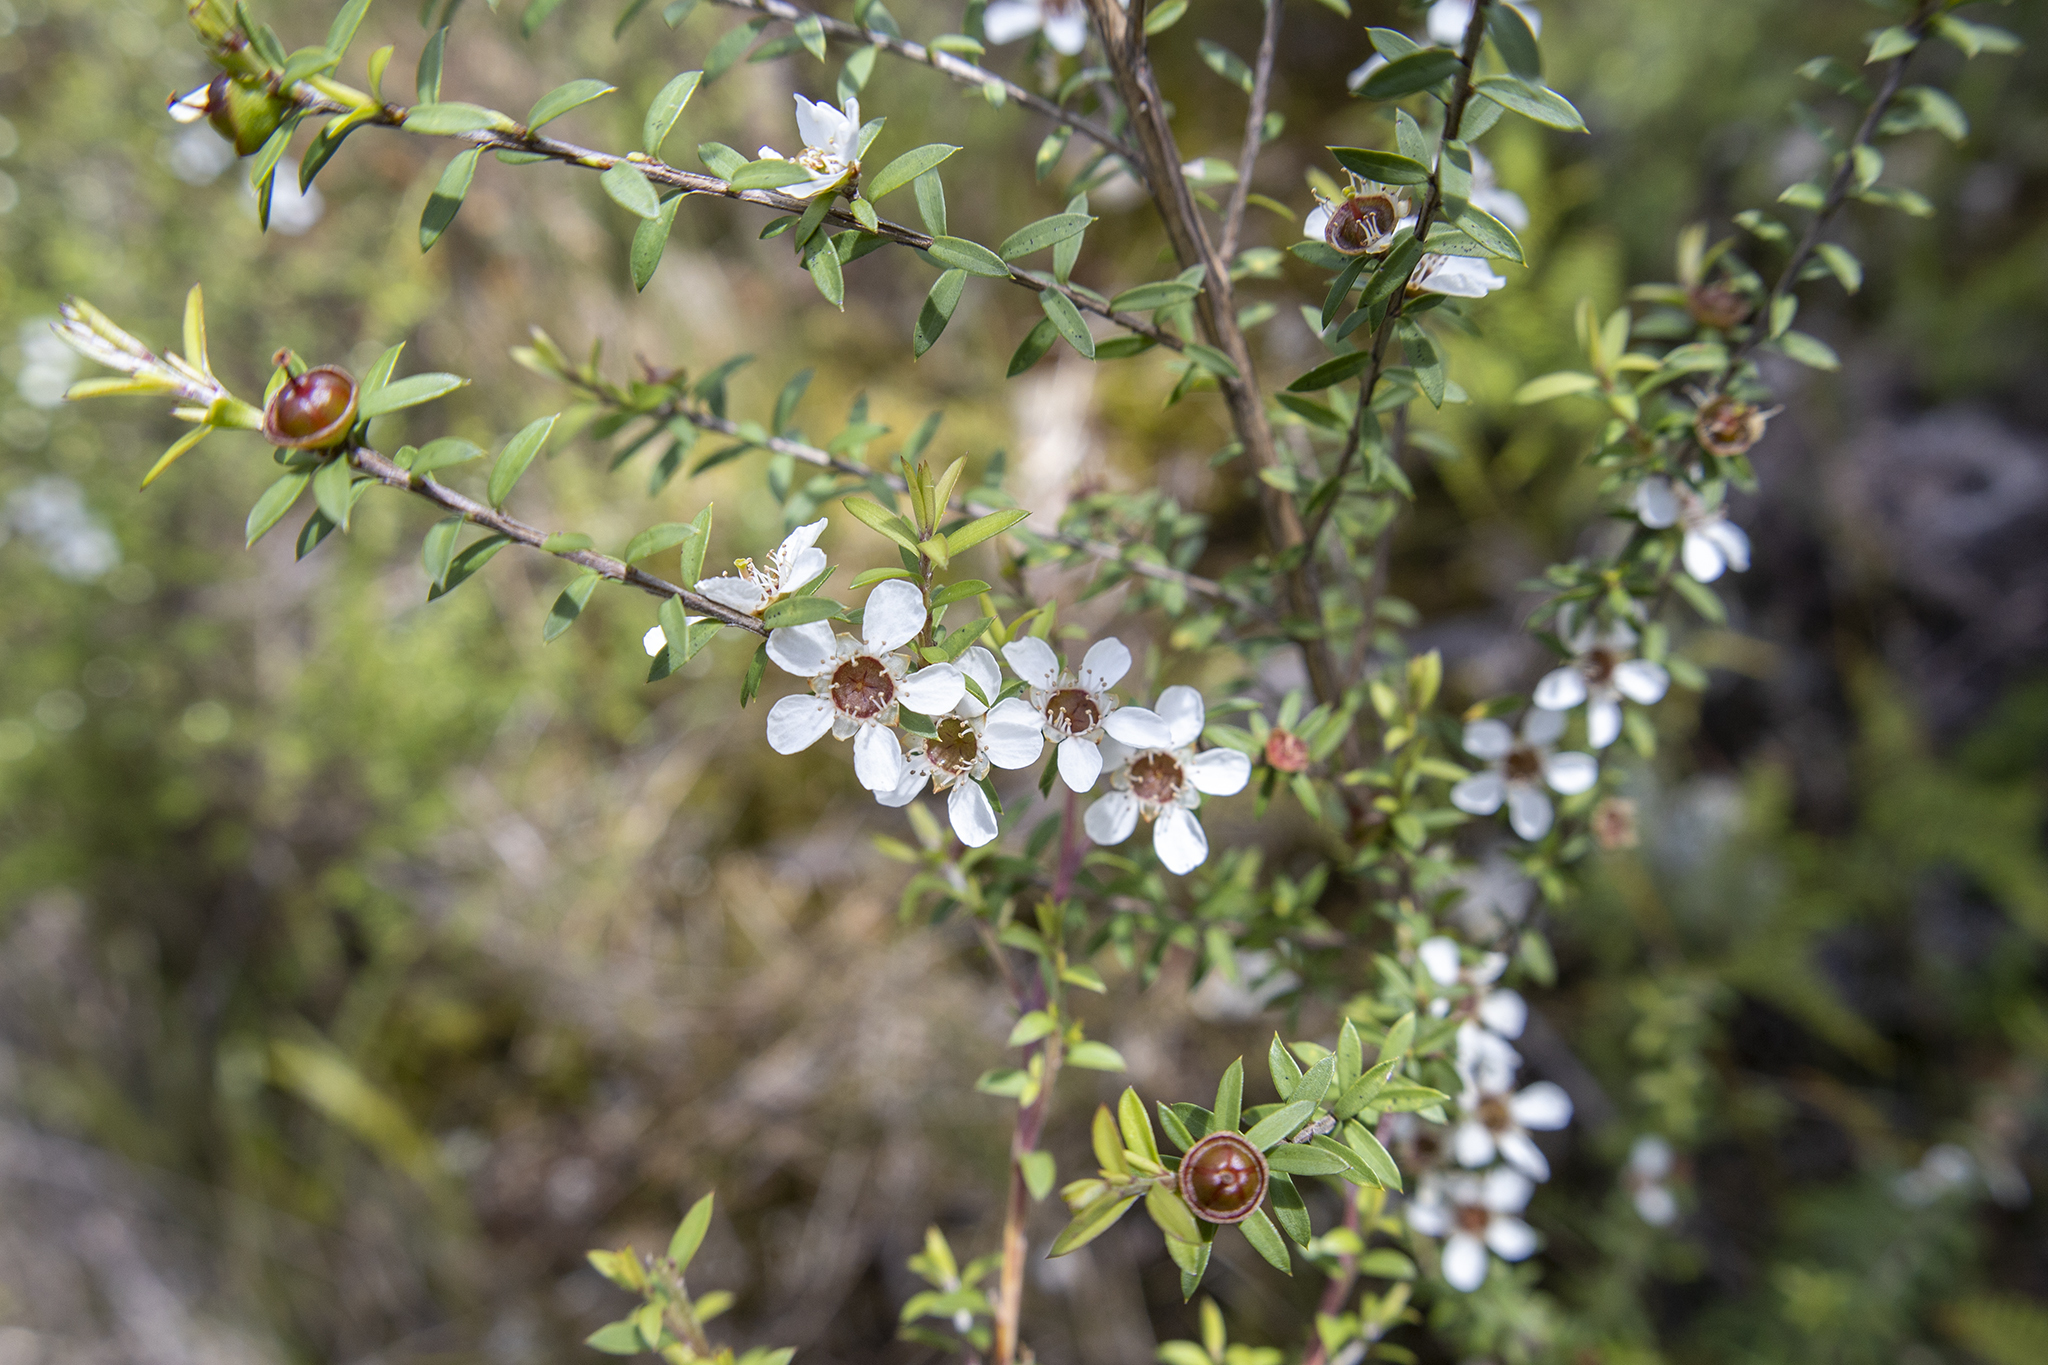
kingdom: Plantae
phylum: Tracheophyta
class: Magnoliopsida
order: Myrtales
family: Myrtaceae
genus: Leptospermum
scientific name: Leptospermum scoparium
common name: Broom tea-tree
